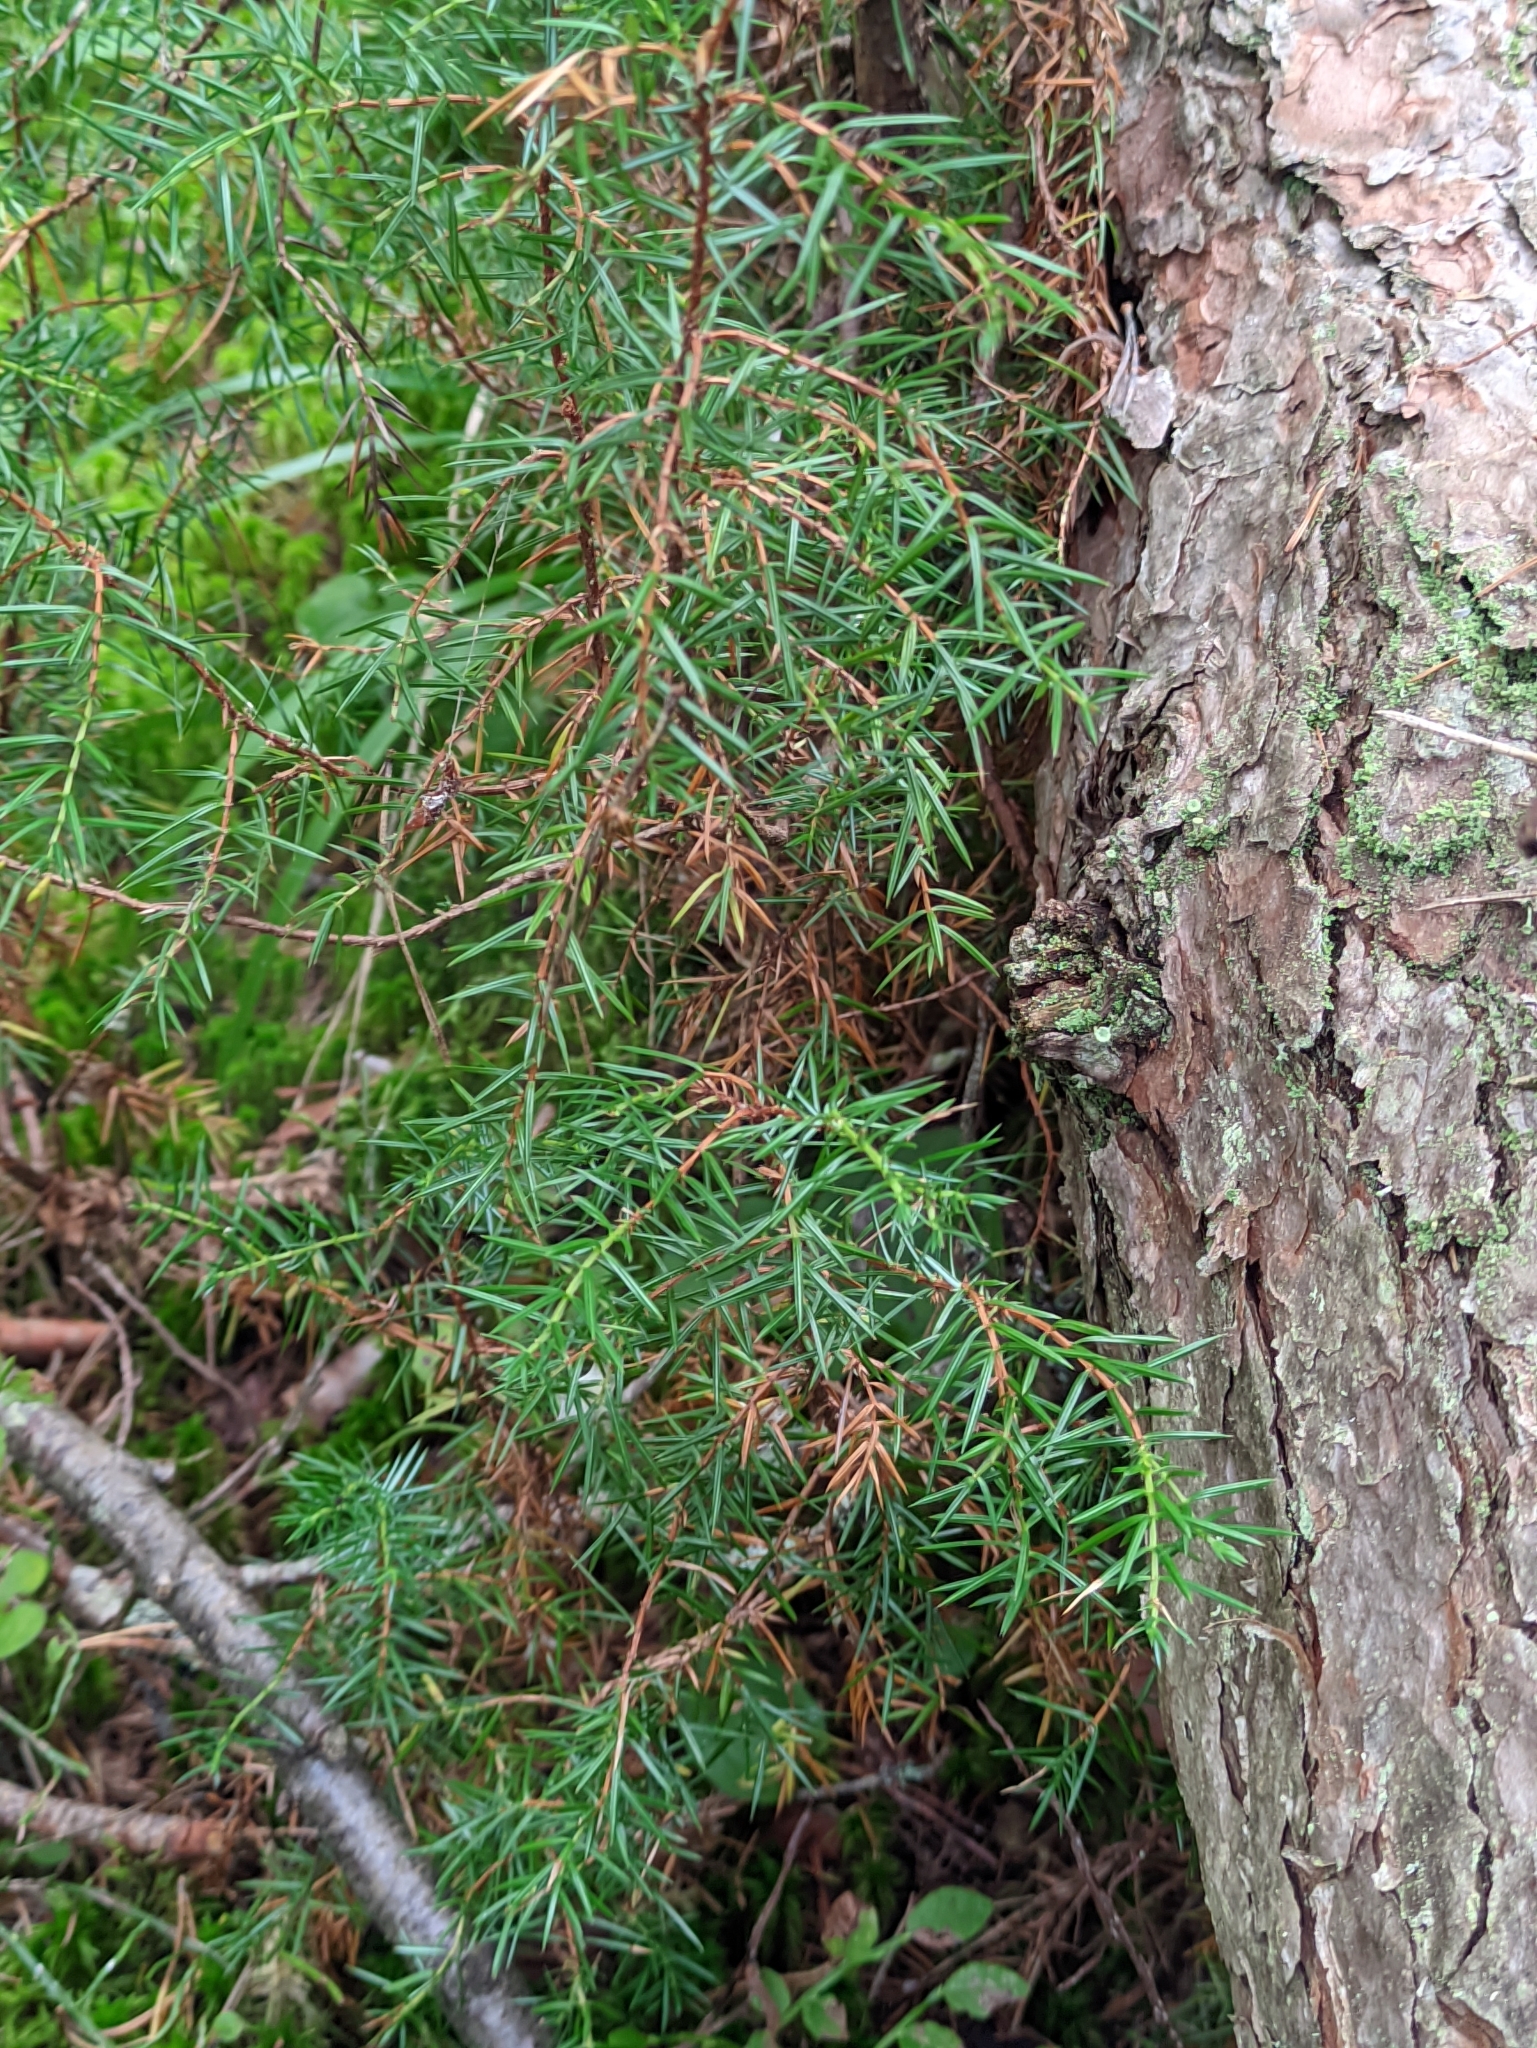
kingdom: Plantae
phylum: Tracheophyta
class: Pinopsida
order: Pinales
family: Cupressaceae
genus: Juniperus
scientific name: Juniperus communis
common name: Common juniper
